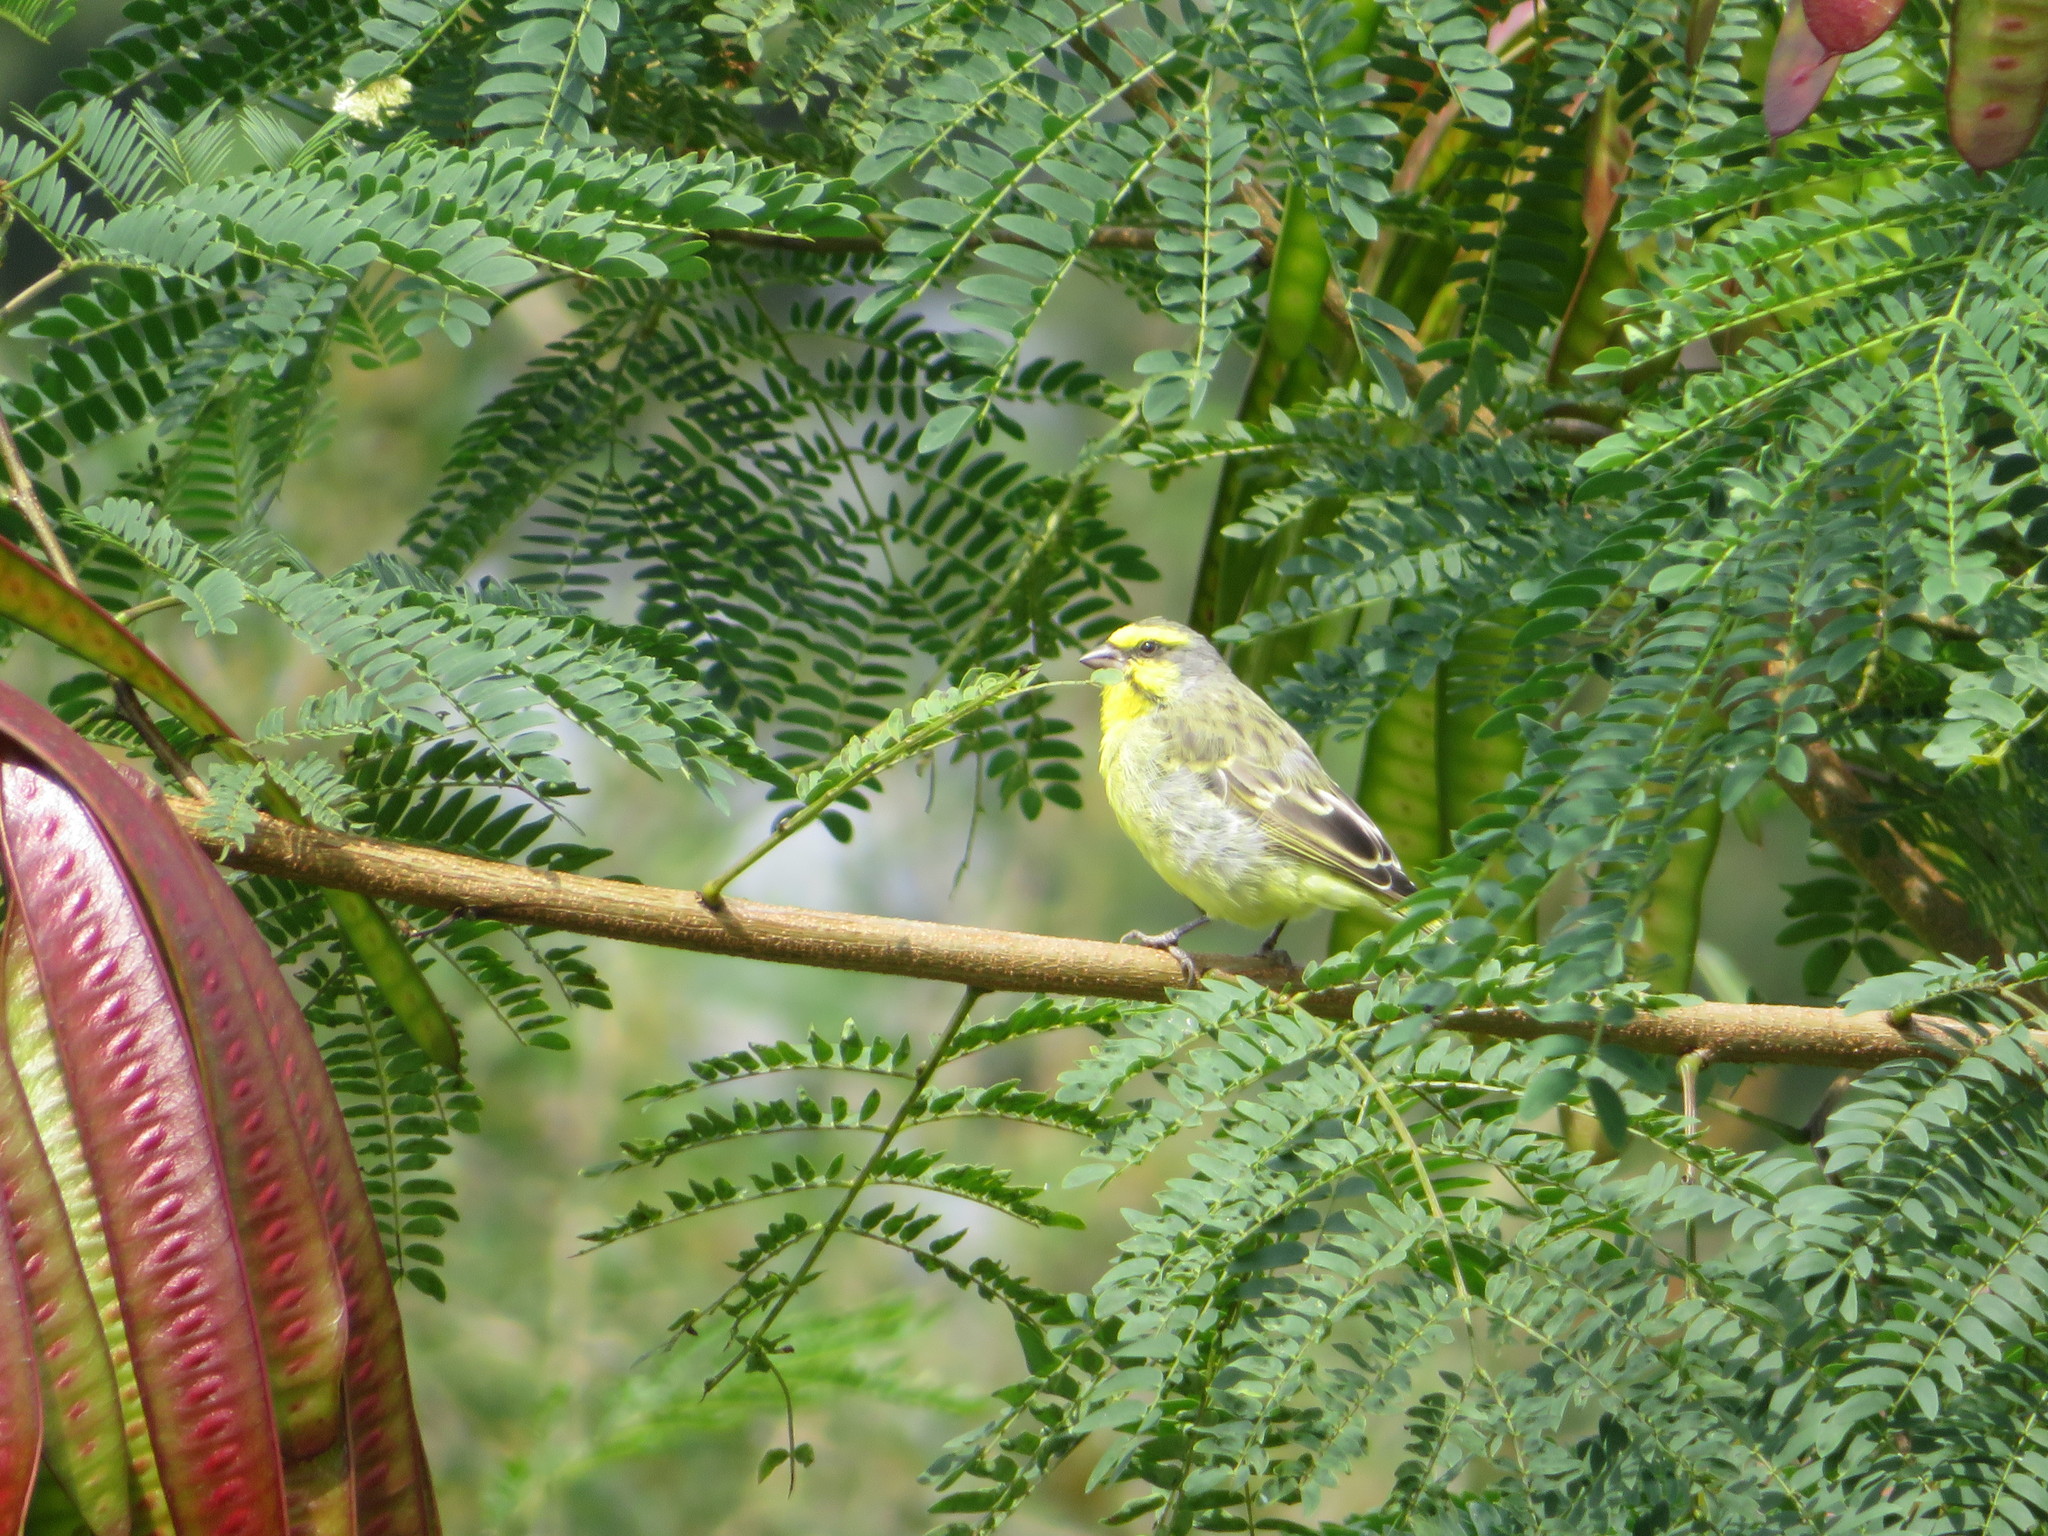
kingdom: Animalia
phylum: Chordata
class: Aves
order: Passeriformes
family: Fringillidae
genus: Crithagra
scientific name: Crithagra mozambica
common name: Yellow-fronted canary
